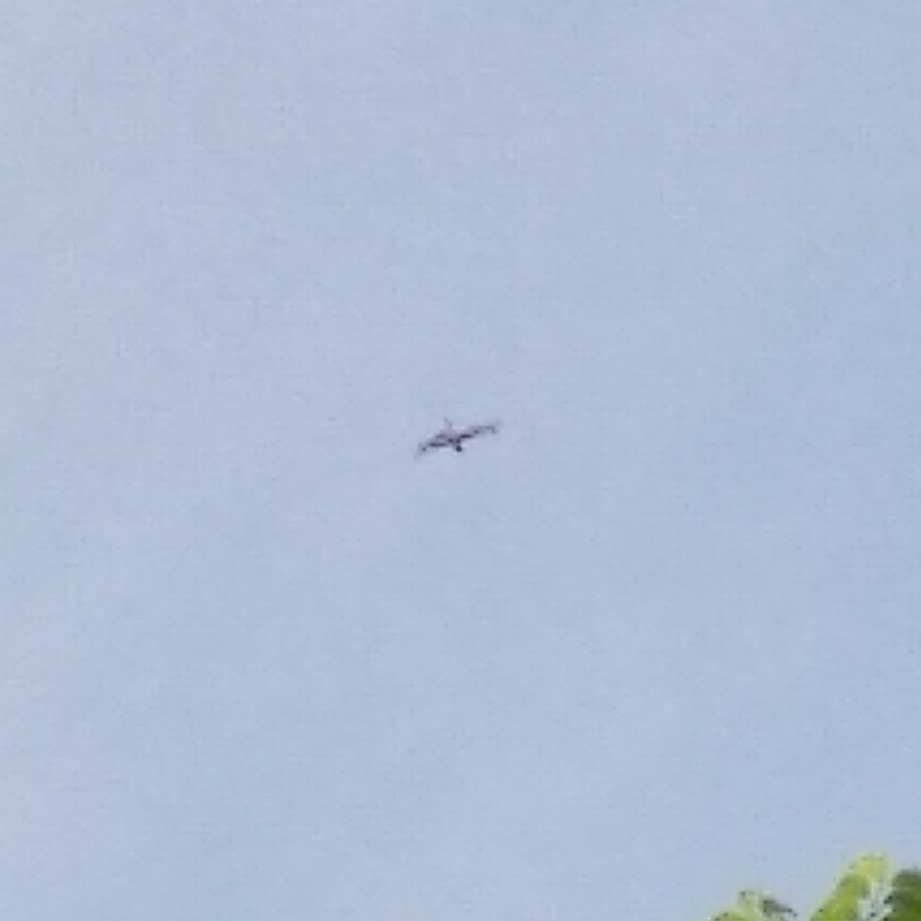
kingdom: Animalia
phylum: Arthropoda
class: Insecta
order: Odonata
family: Libellulidae
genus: Rhyothemis
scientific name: Rhyothemis variegata
